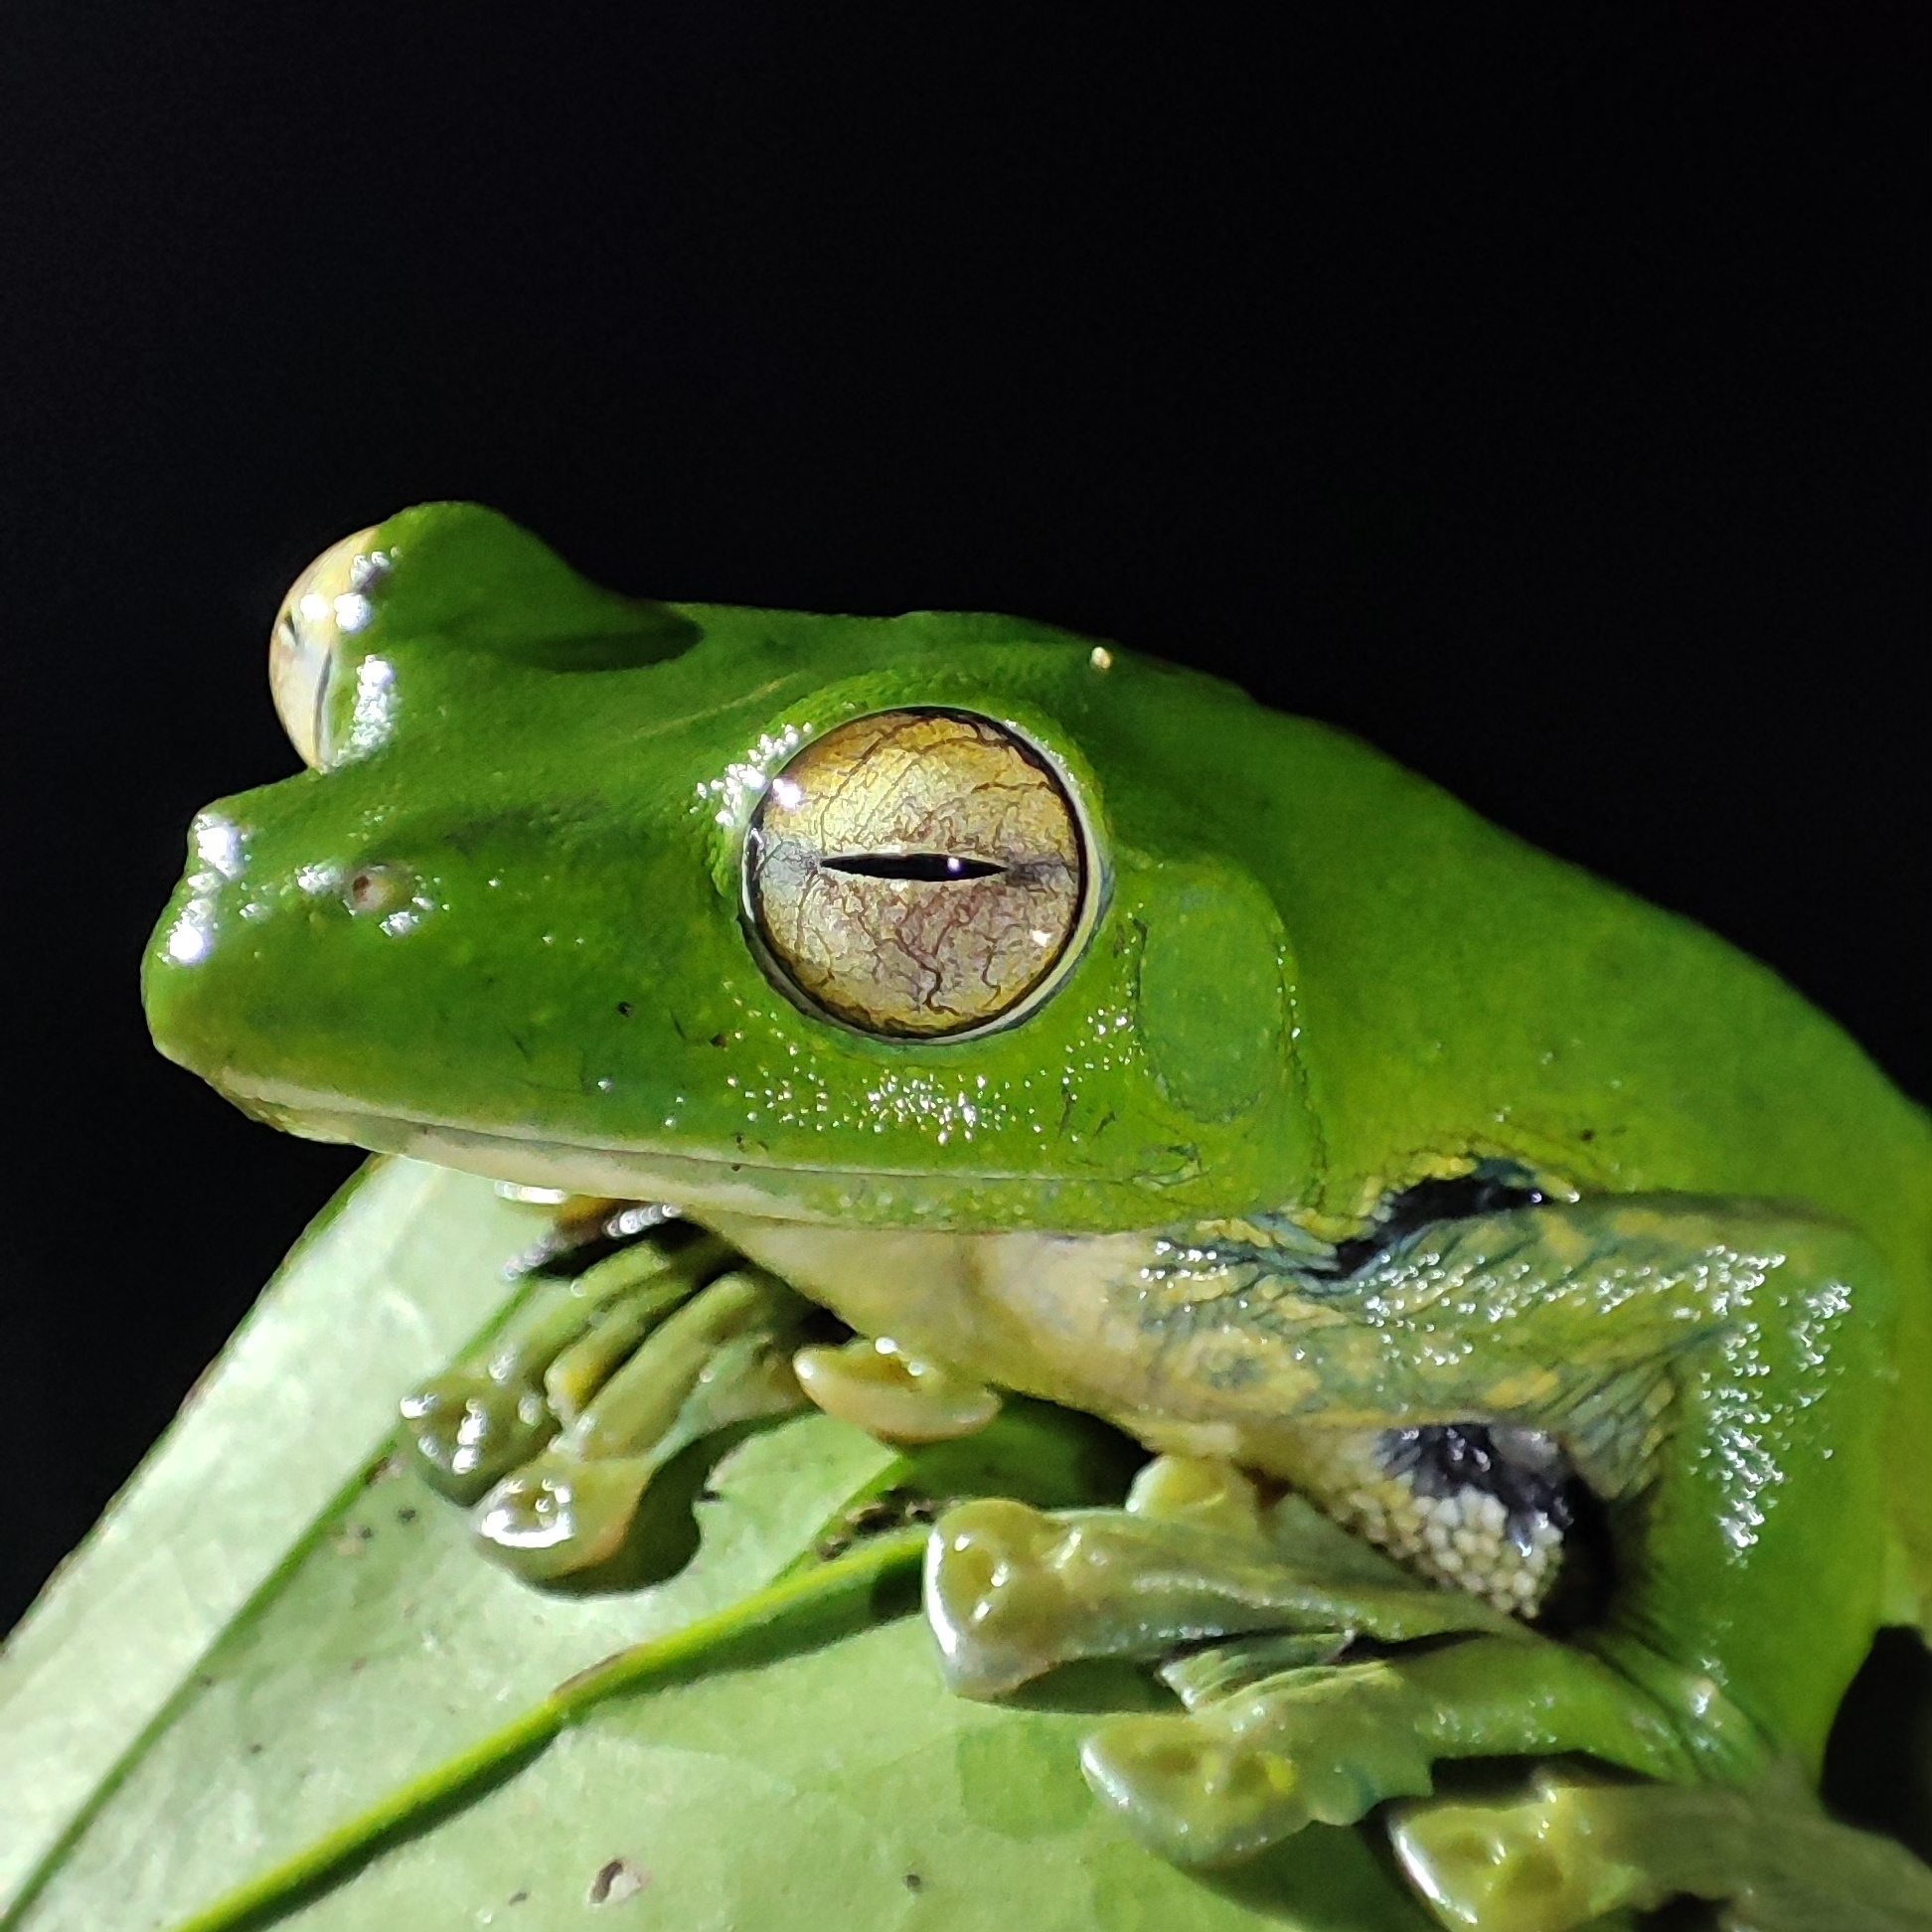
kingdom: Animalia
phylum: Chordata
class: Amphibia
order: Anura
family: Rhacophoridae
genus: Rhacophorus
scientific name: Rhacophorus helenae
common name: Helen’s flying treefrog
